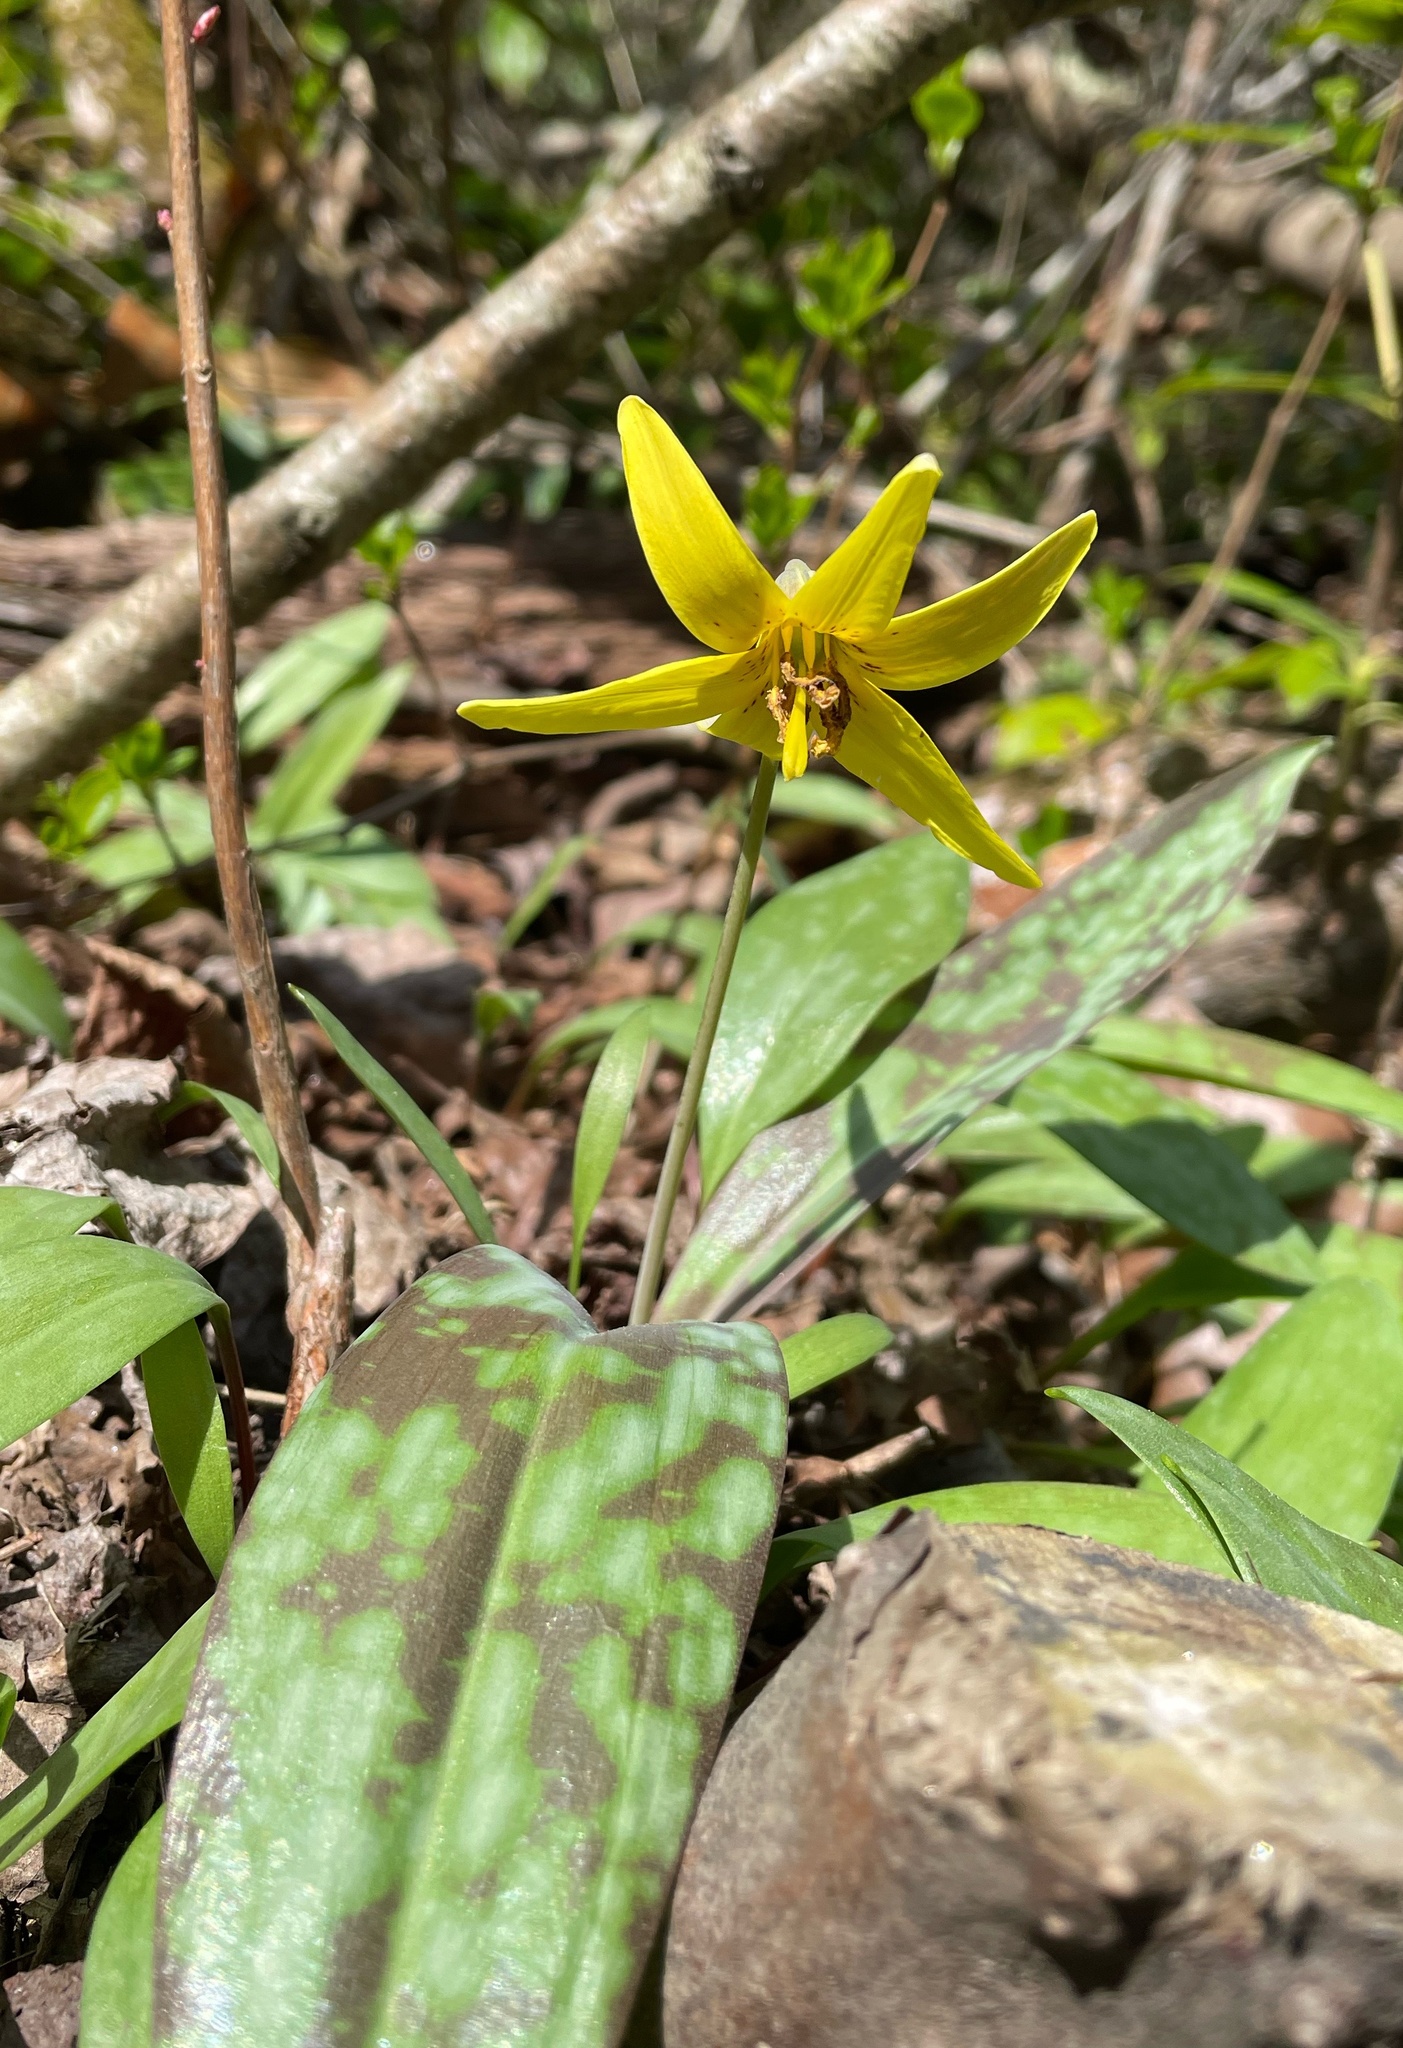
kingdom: Plantae
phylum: Tracheophyta
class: Liliopsida
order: Liliales
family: Liliaceae
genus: Erythronium
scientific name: Erythronium americanum
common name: Yellow adder's-tongue
